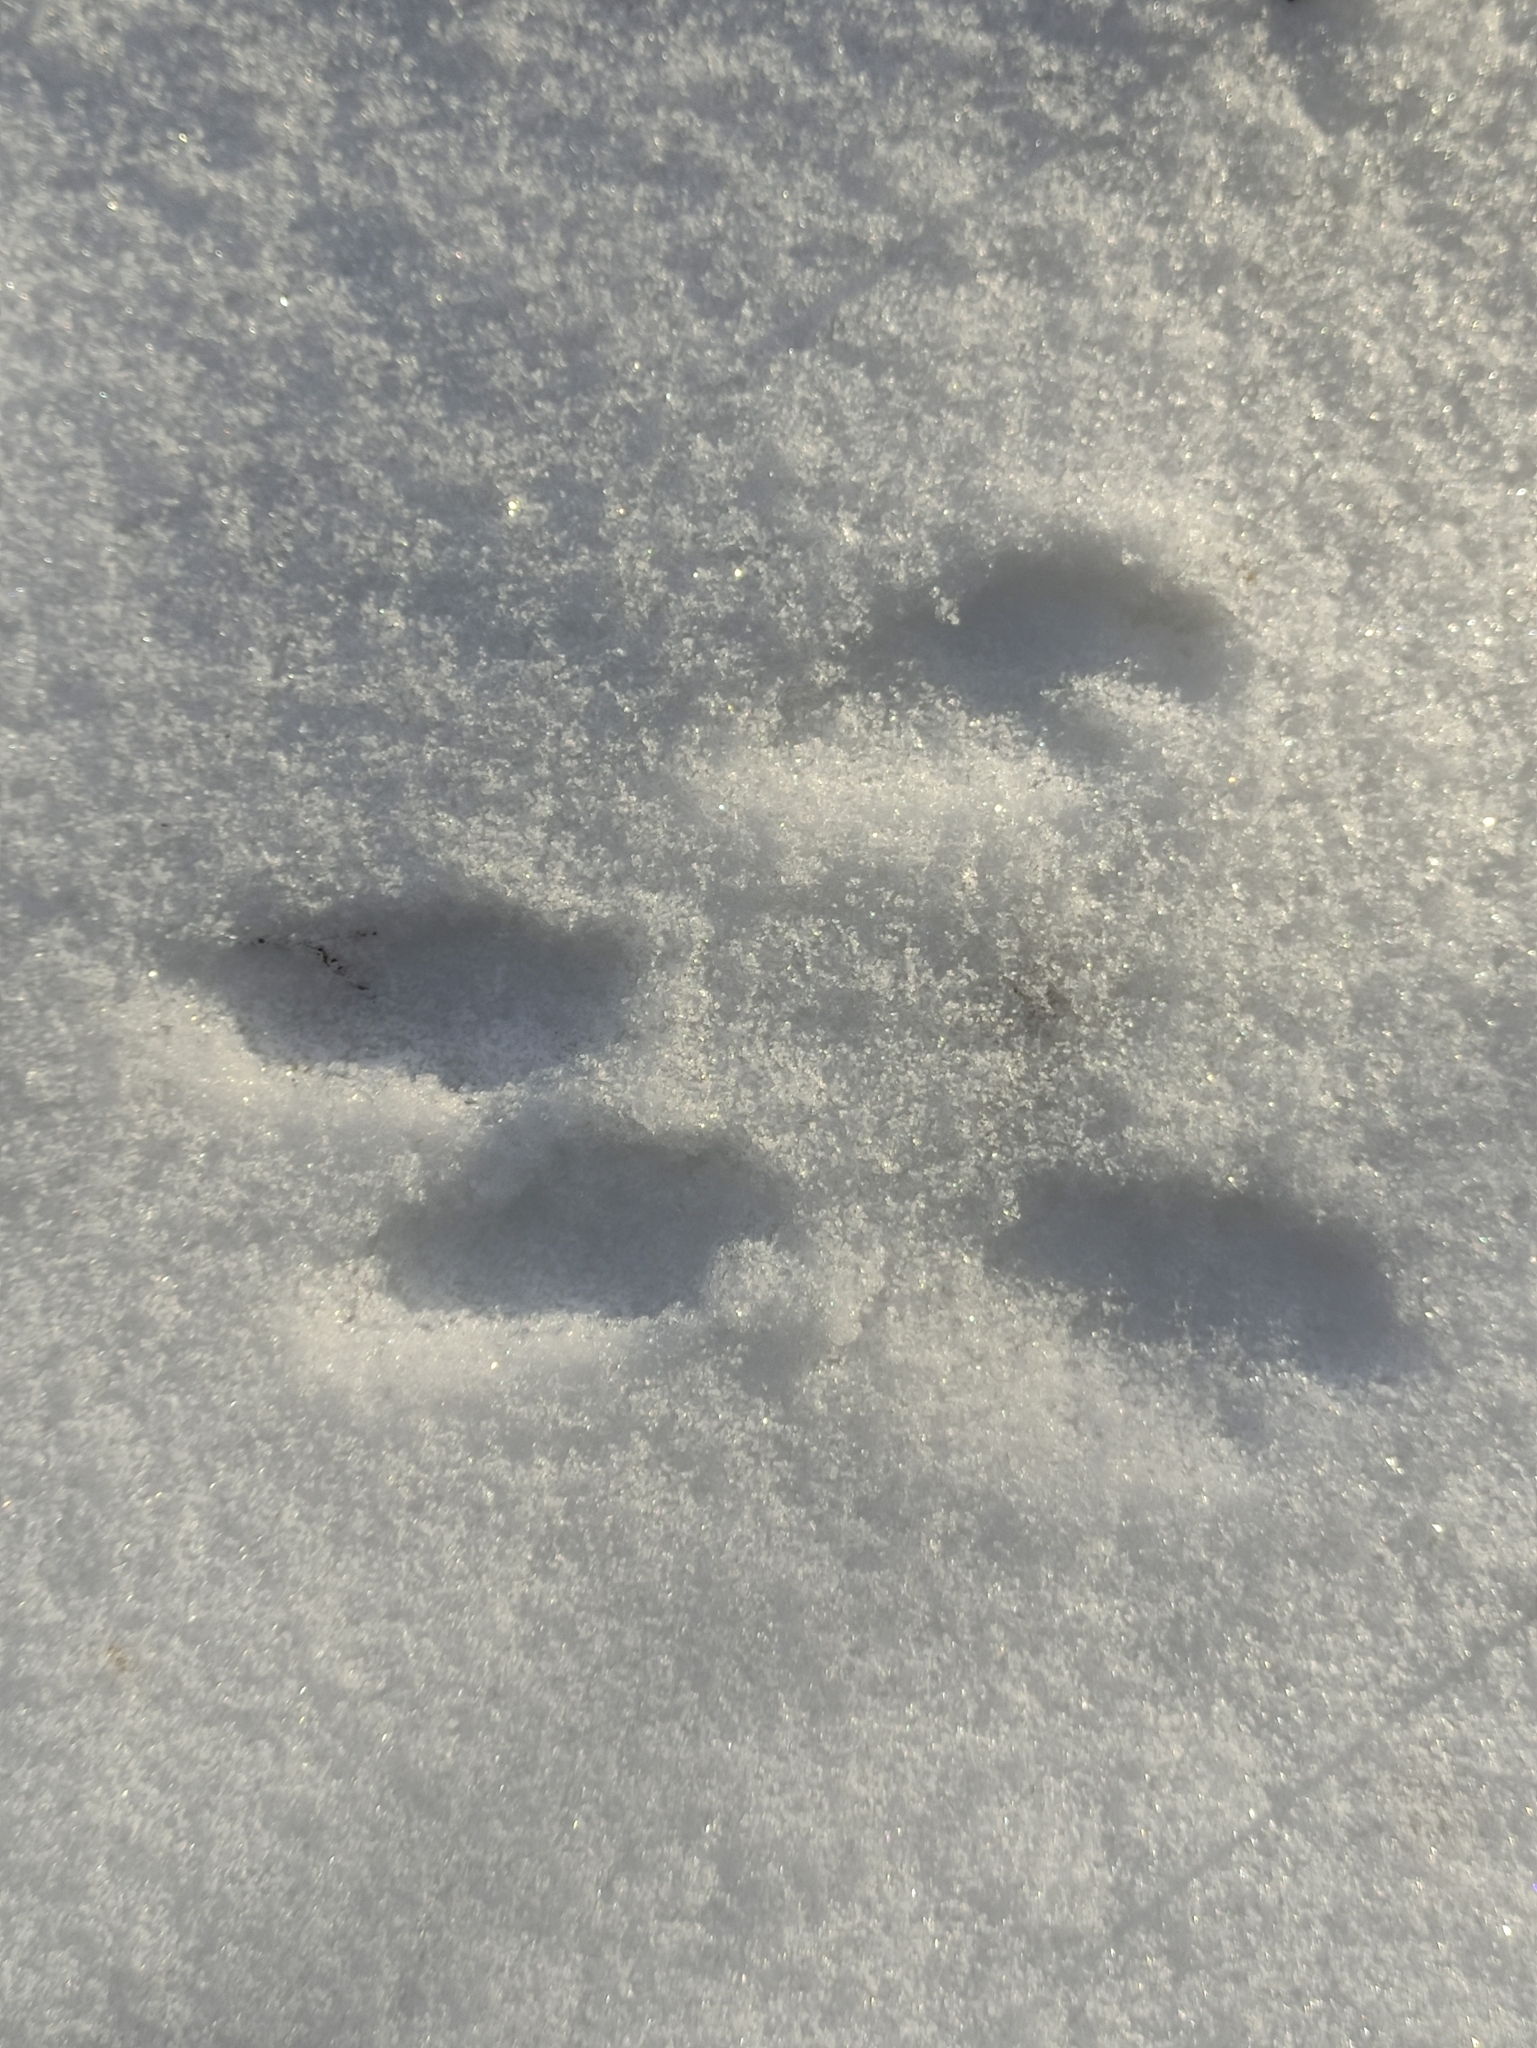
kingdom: Animalia
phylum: Chordata
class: Mammalia
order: Rodentia
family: Sciuridae
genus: Sciurus
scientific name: Sciurus vulgaris
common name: Eurasian red squirrel
